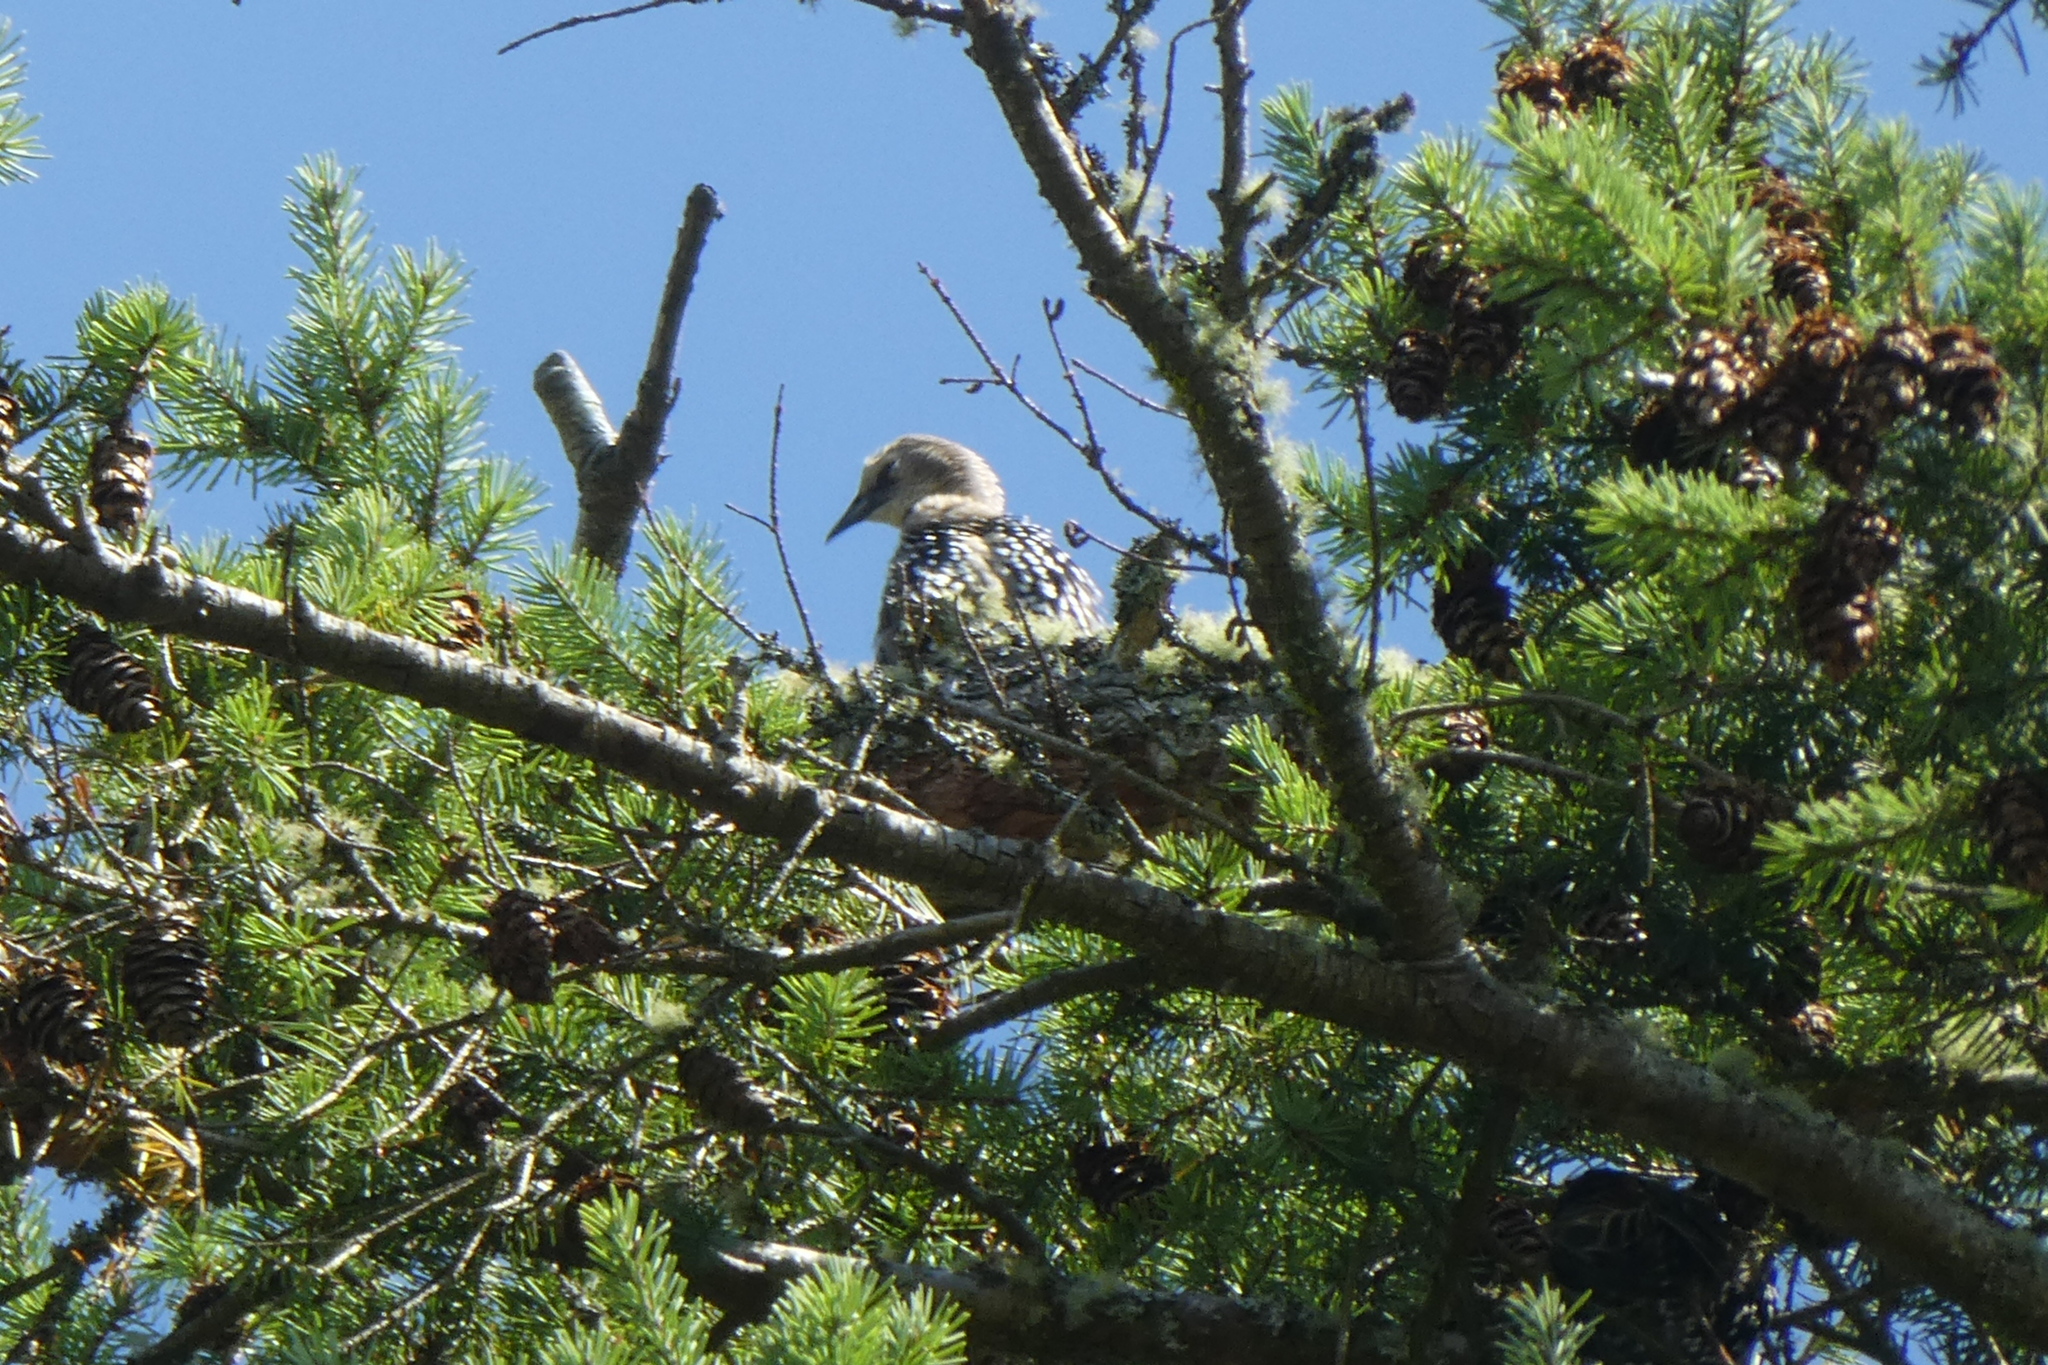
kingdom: Animalia
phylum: Chordata
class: Aves
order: Passeriformes
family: Sturnidae
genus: Sturnus
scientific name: Sturnus vulgaris
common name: Common starling
